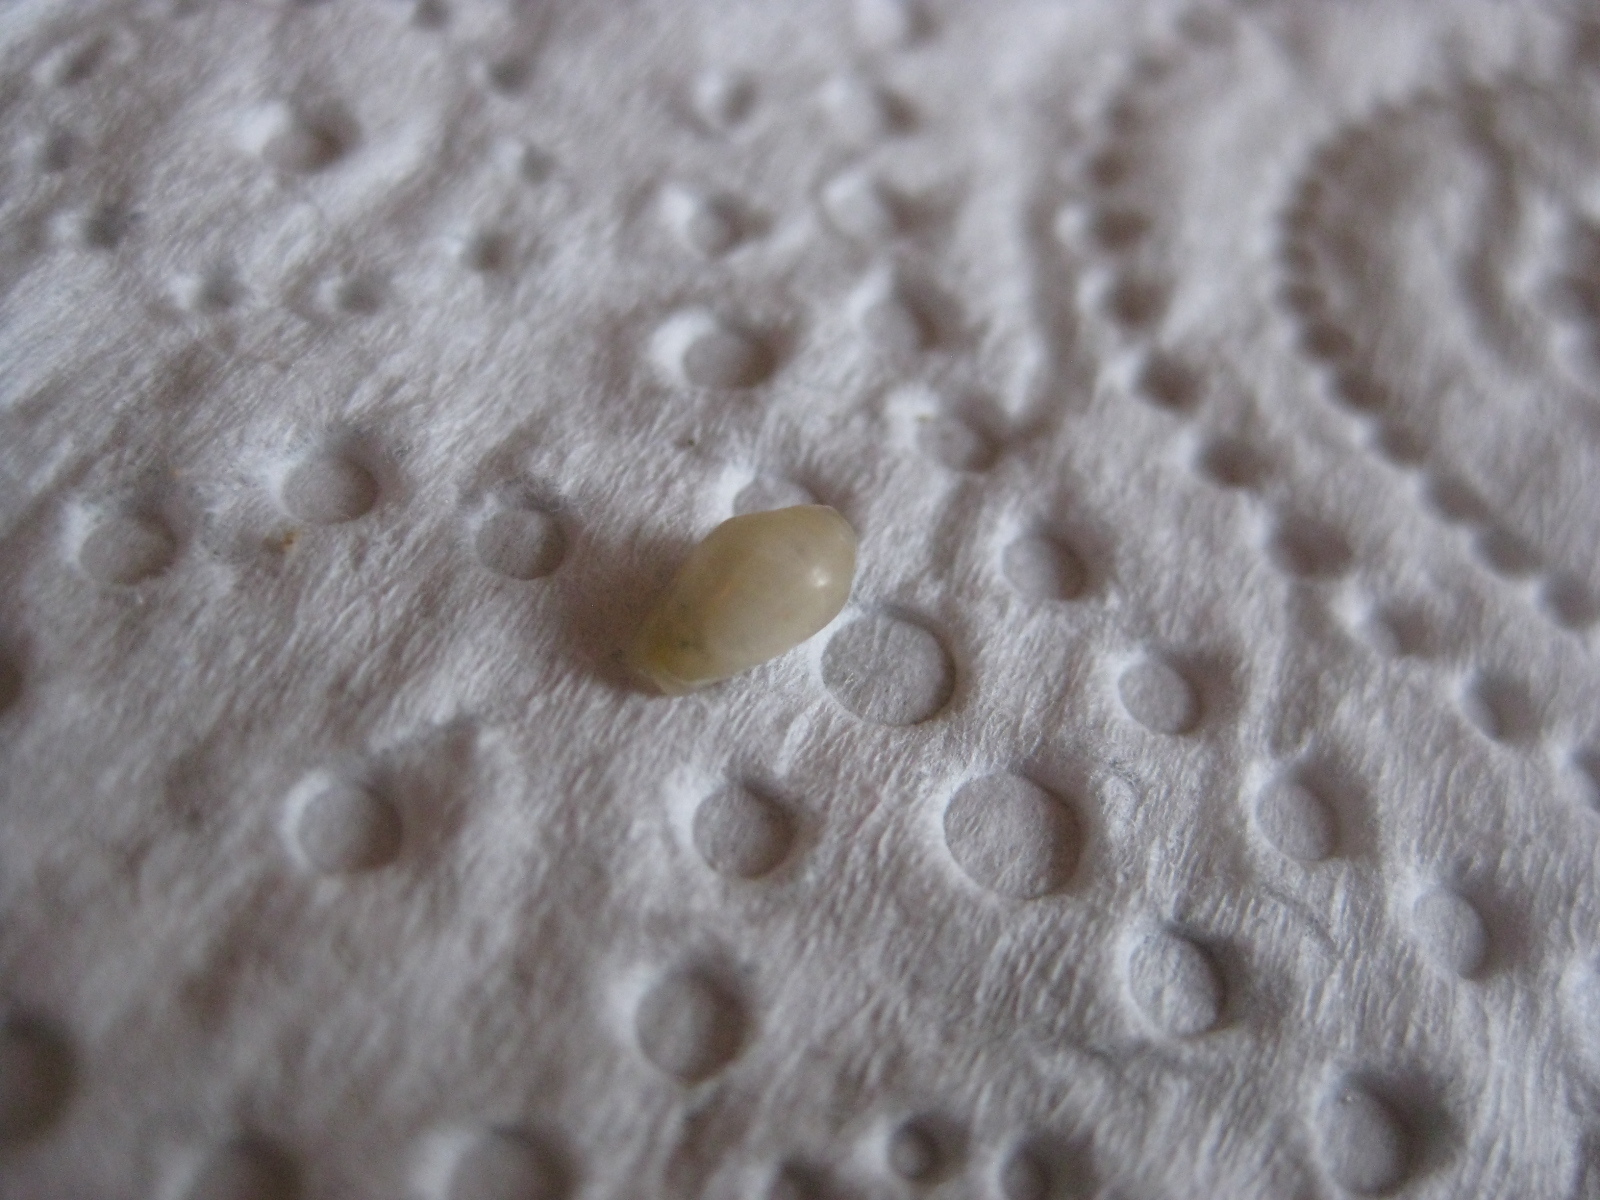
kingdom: Animalia
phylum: Mollusca
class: Gastropoda
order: Neogastropoda
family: Marginellidae
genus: Mesoginella
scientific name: Mesoginella koma
